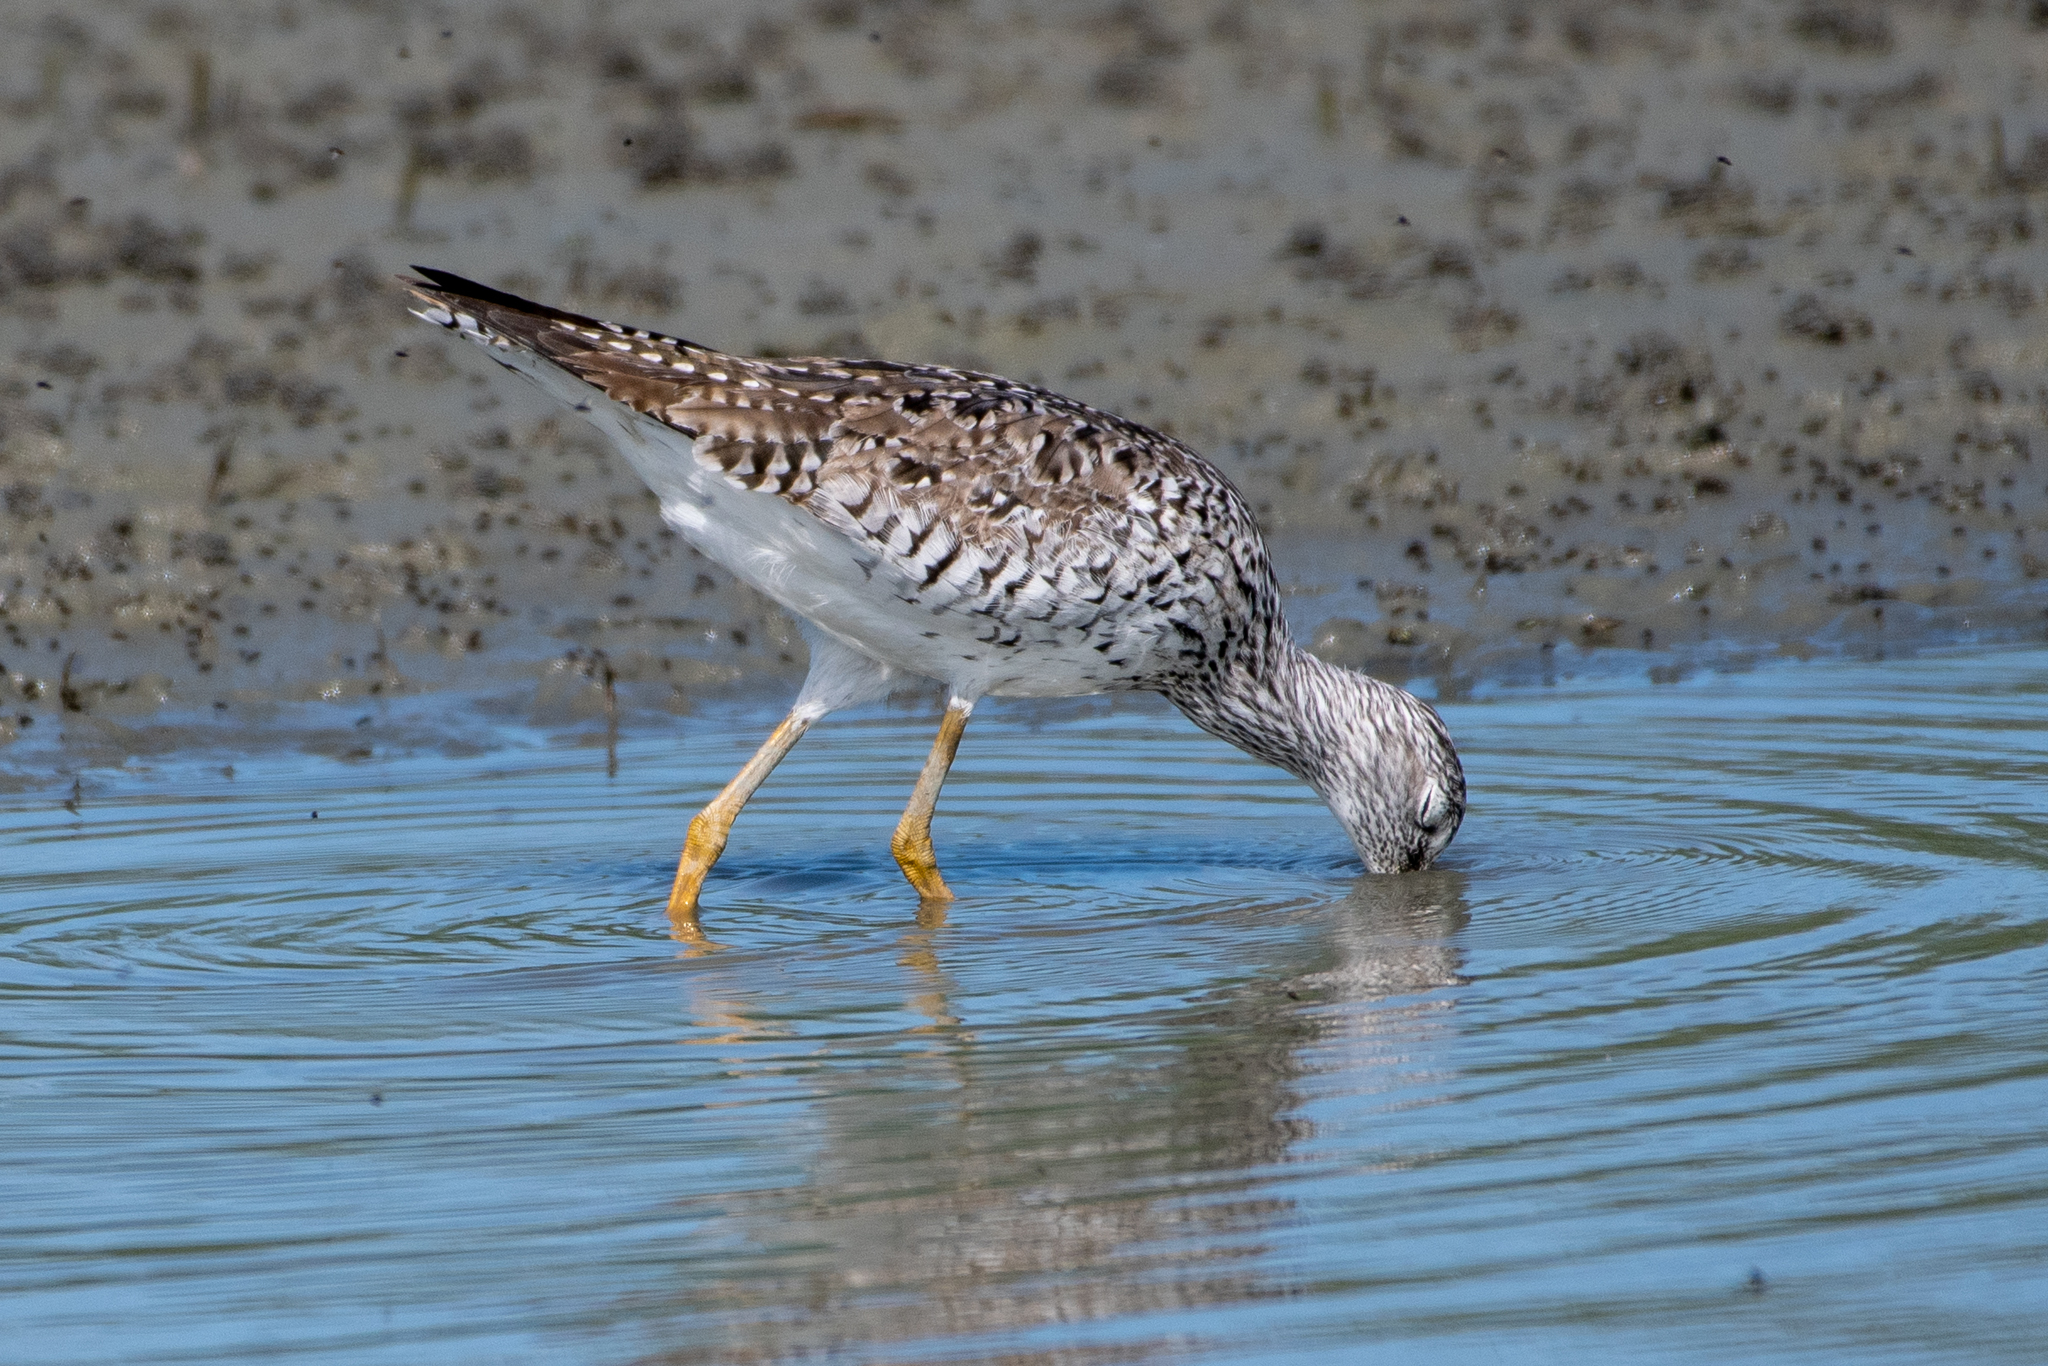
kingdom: Animalia
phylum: Chordata
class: Aves
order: Charadriiformes
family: Scolopacidae
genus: Tringa
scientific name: Tringa melanoleuca
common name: Greater yellowlegs
